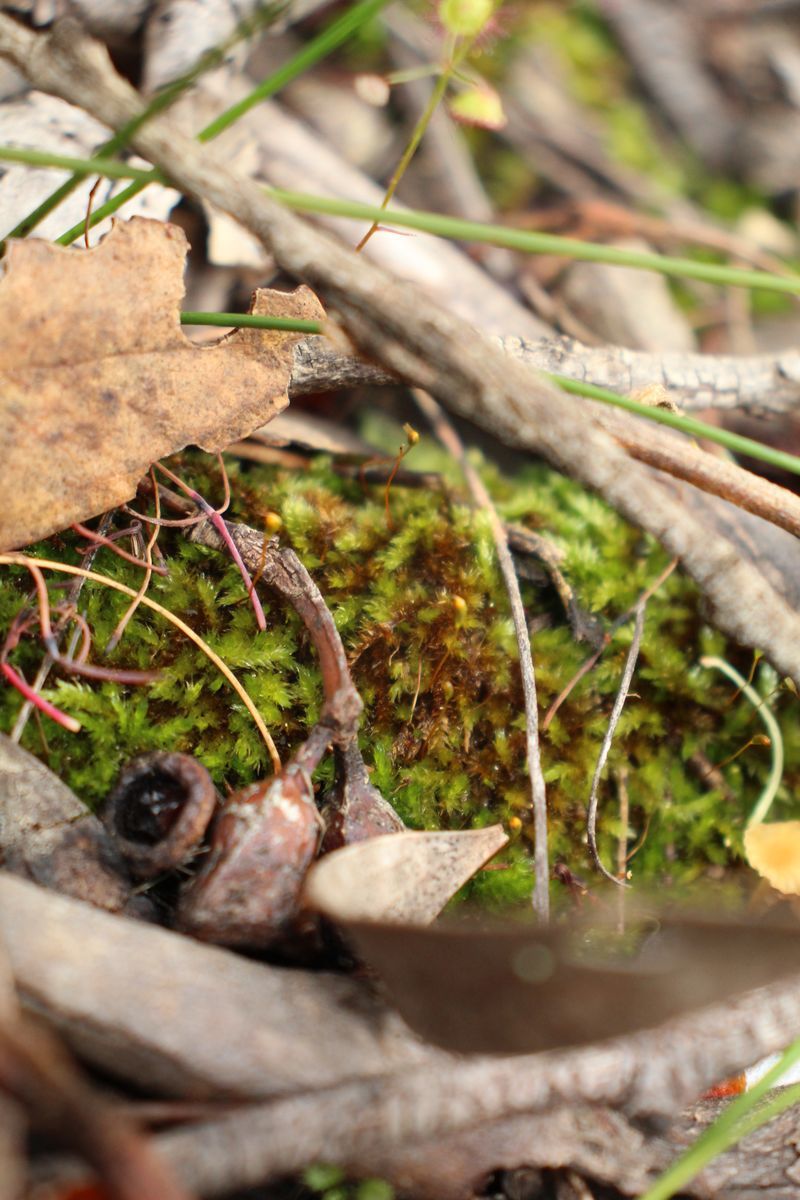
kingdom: Plantae
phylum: Bryophyta
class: Bryopsida
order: Hypnales
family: Sematophyllaceae
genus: Sematophyllum
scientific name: Sematophyllum homomallum
